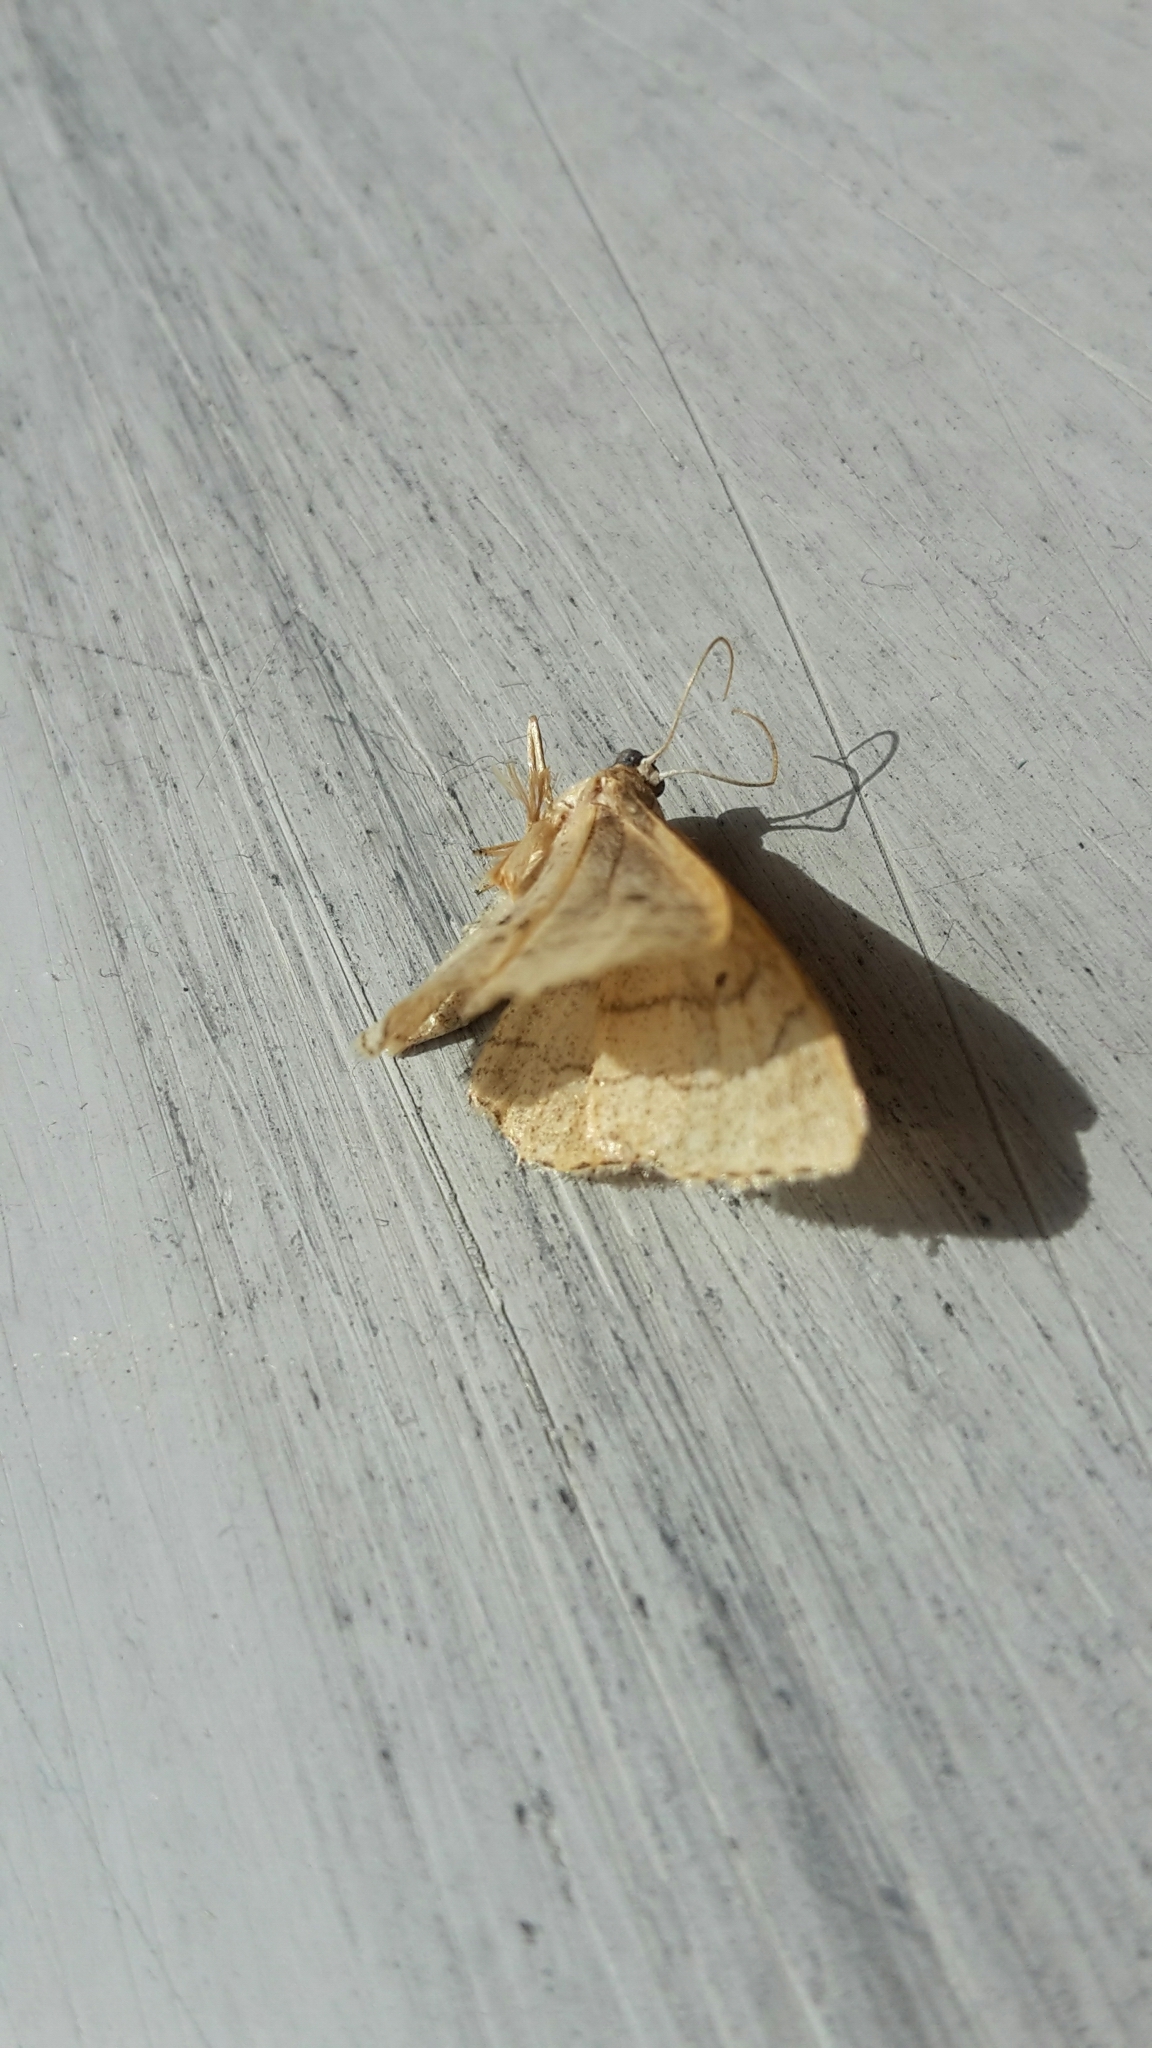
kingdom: Animalia
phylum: Arthropoda
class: Insecta
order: Lepidoptera
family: Geometridae
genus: Idaea
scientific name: Idaea aversata
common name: Riband wave
